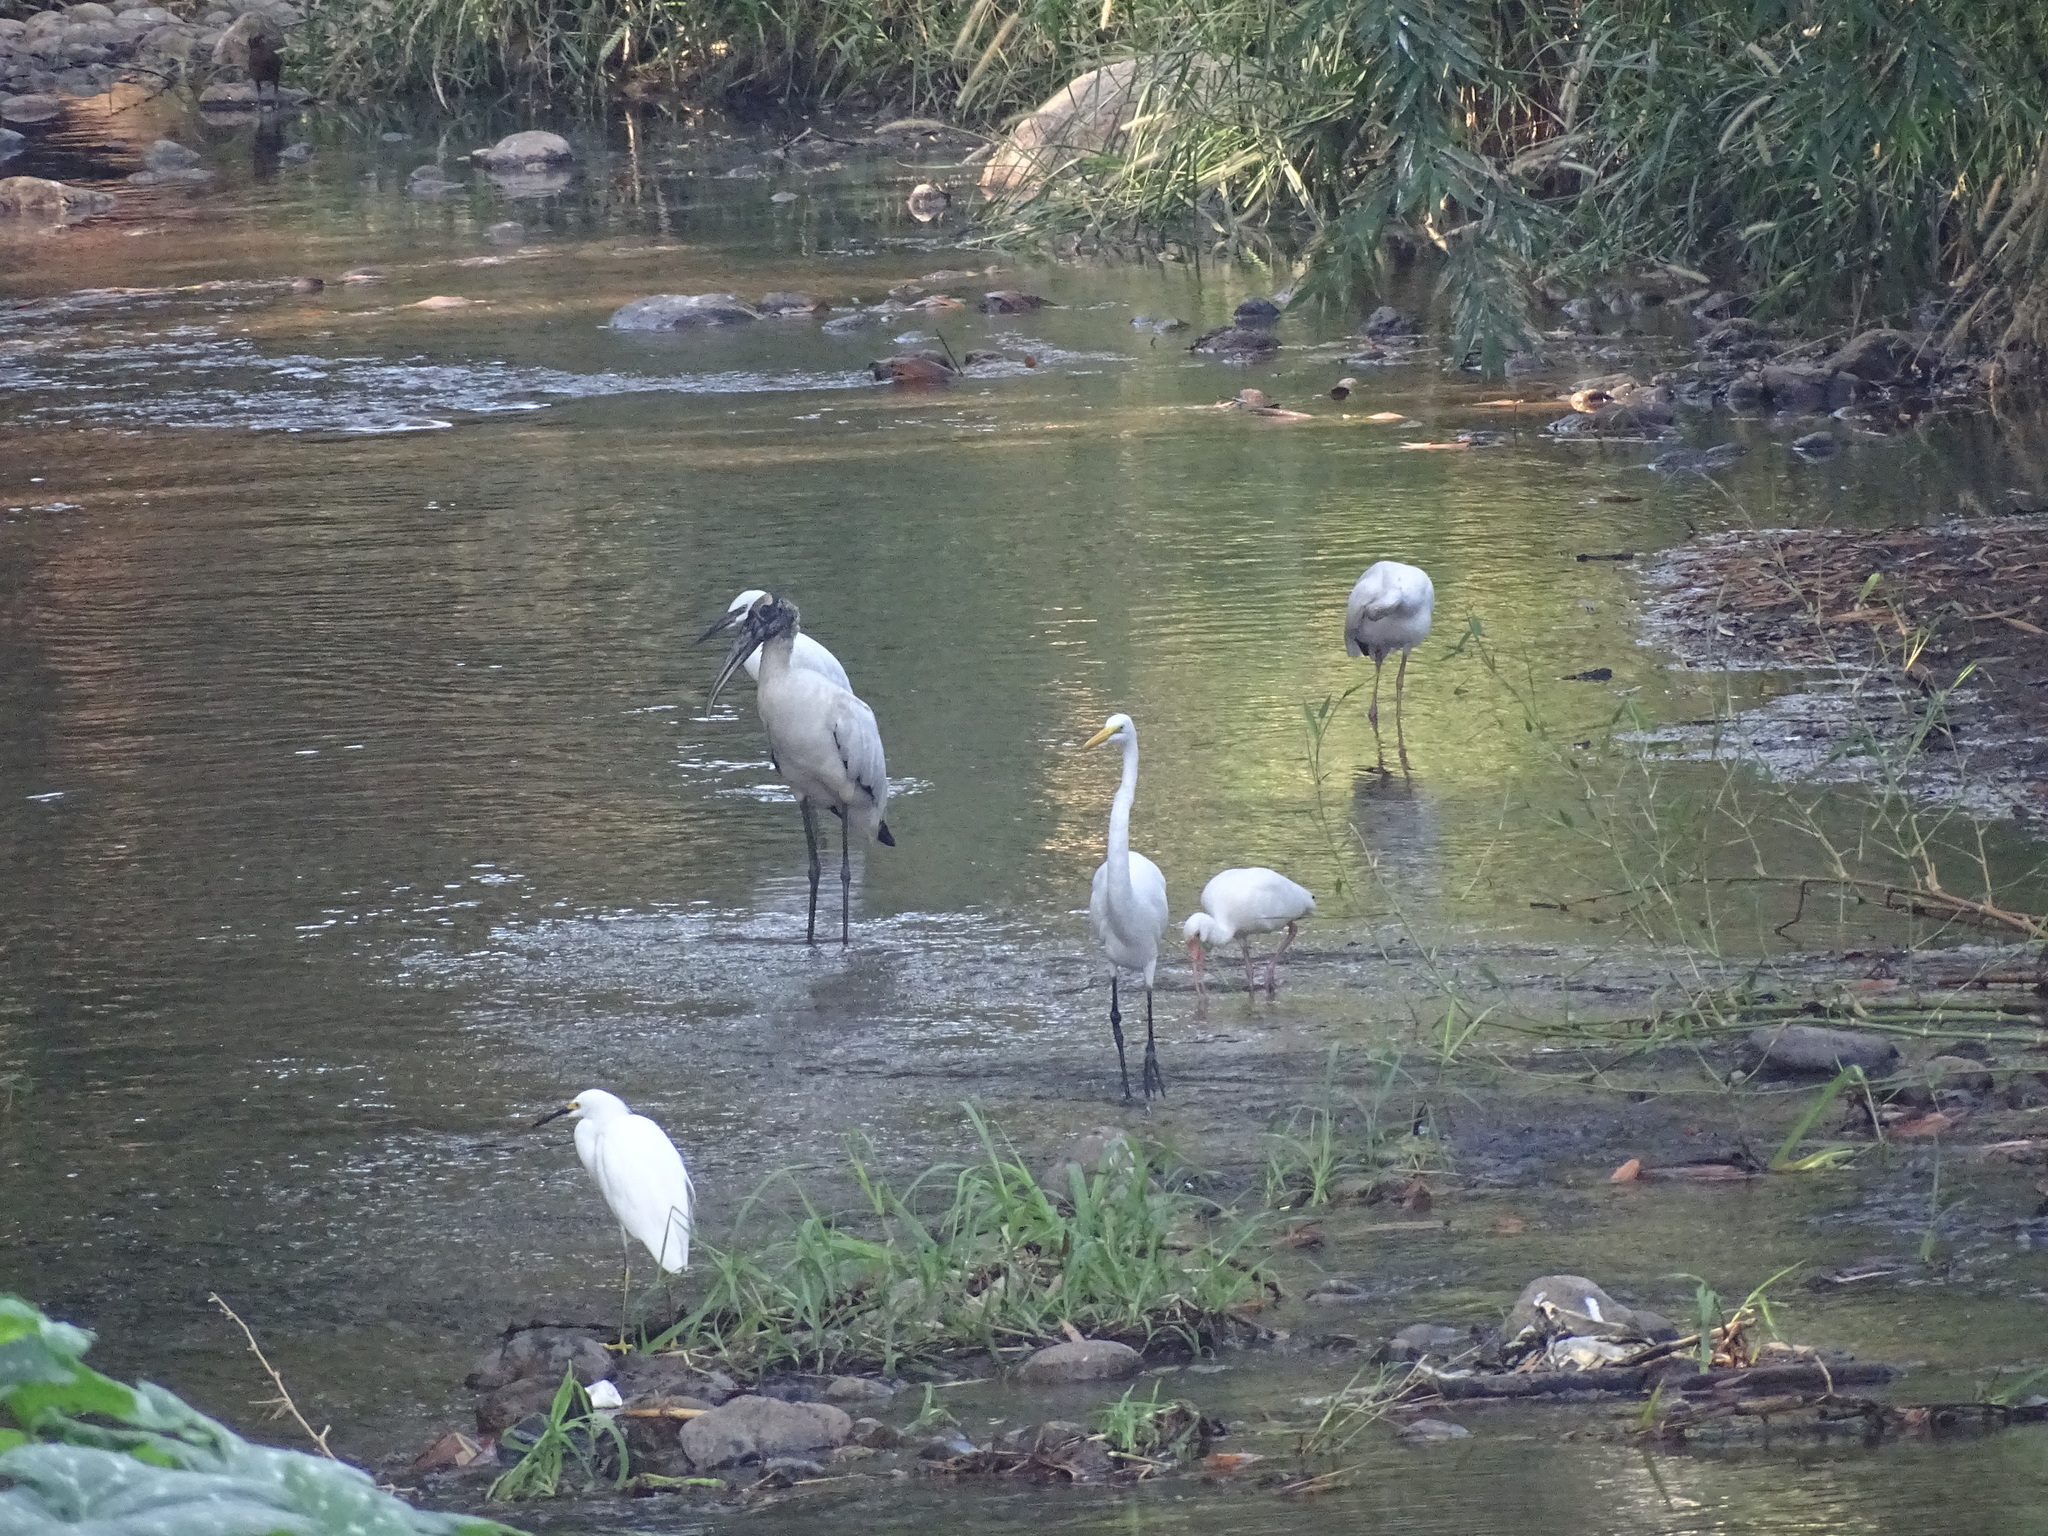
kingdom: Animalia
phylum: Chordata
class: Aves
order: Pelecaniformes
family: Ardeidae
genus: Ardea
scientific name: Ardea alba
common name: Great egret
